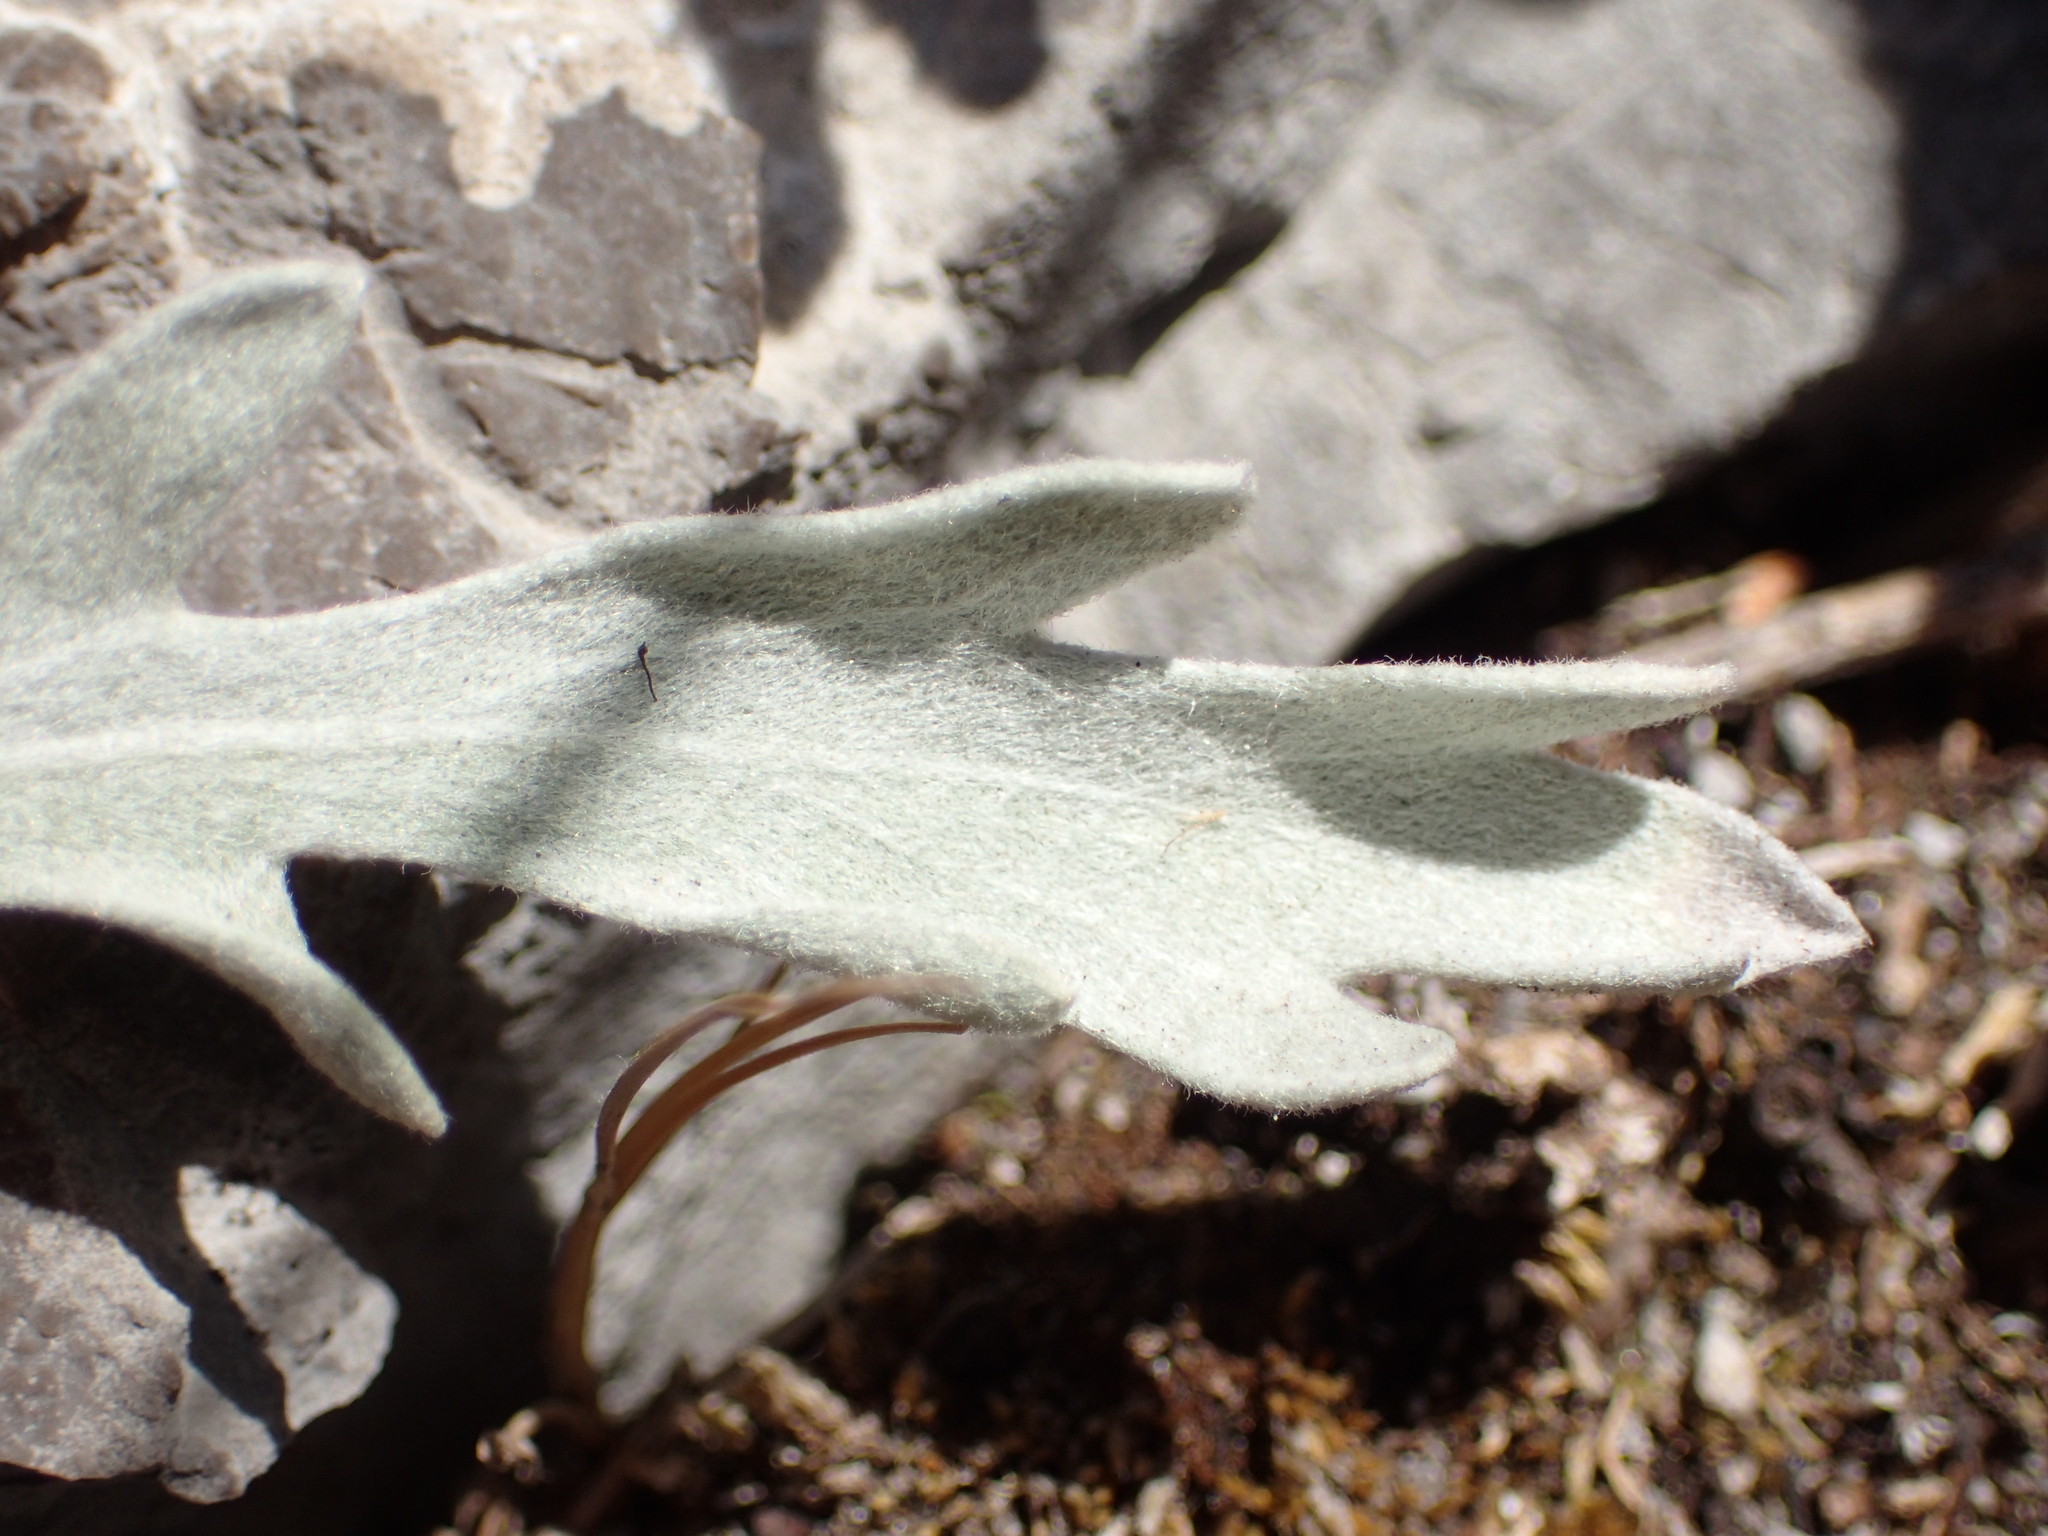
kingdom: Plantae
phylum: Tracheophyta
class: Magnoliopsida
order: Asterales
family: Asteraceae
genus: Achillea
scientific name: Achillea clavennae
